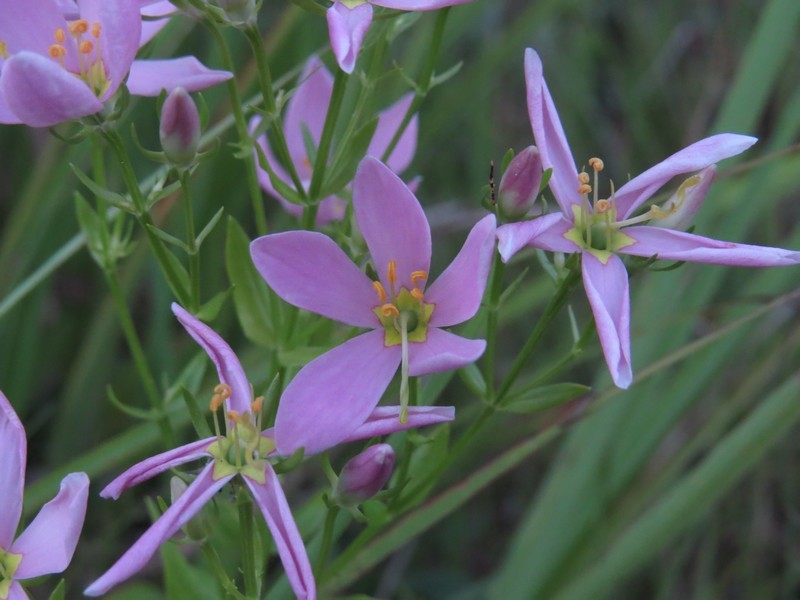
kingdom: Plantae
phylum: Tracheophyta
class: Magnoliopsida
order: Gentianales
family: Gentianaceae
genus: Sabatia
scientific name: Sabatia angularis
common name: Rose-pink
